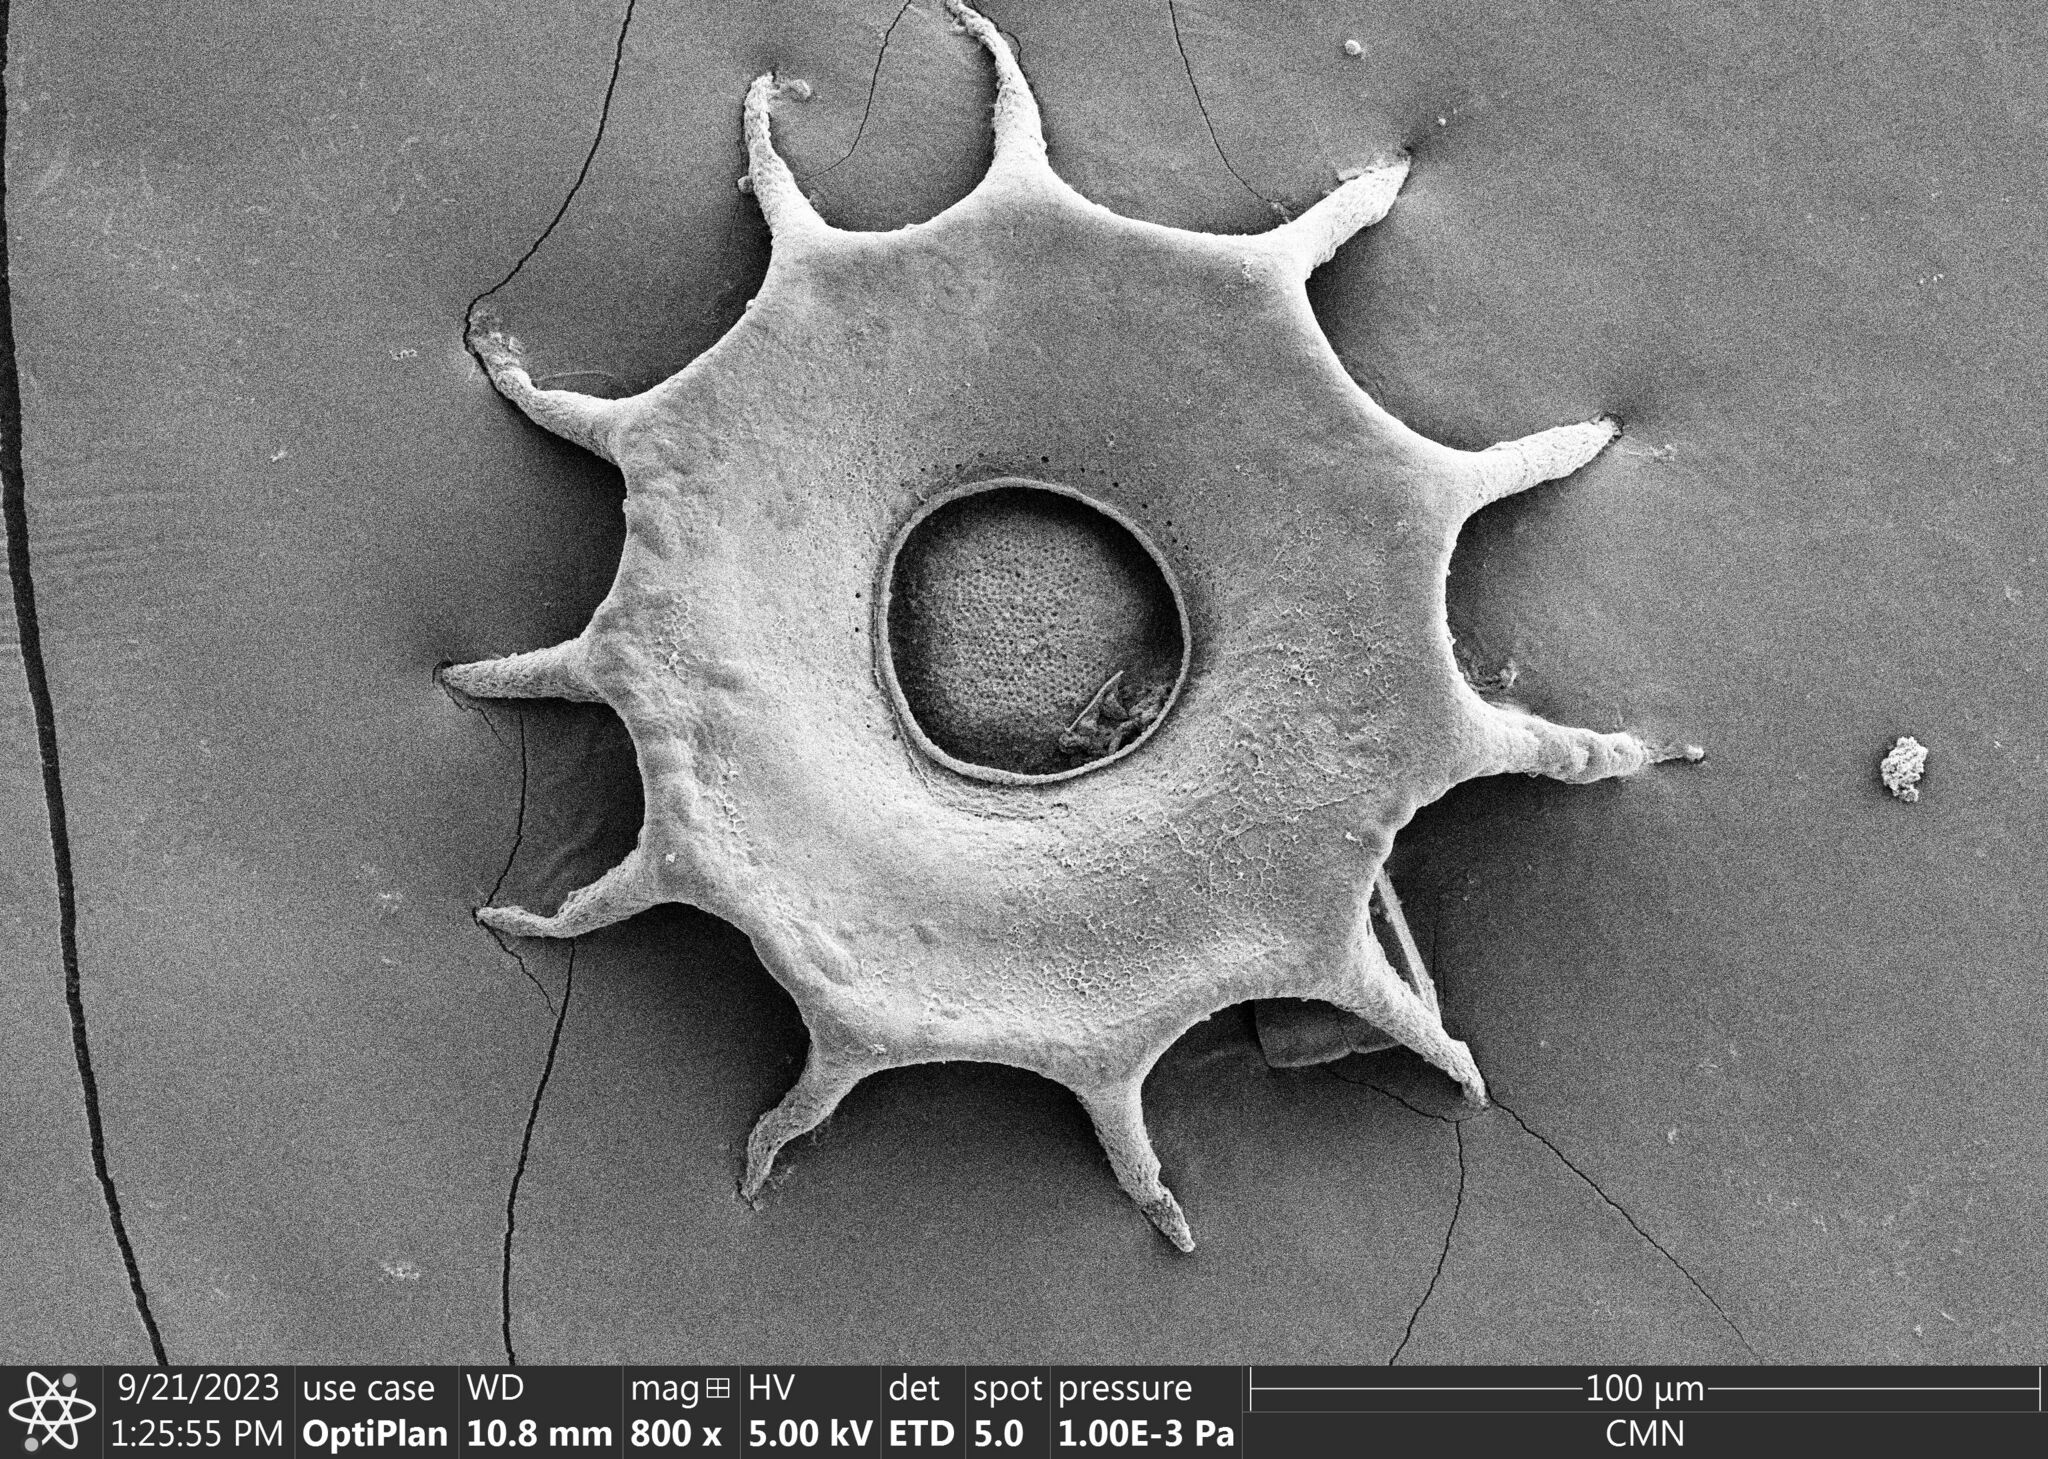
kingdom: Protozoa
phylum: Amoebozoa
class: Lobosa
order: Arcellinida
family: Arcellidae
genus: Galeripora
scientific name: Galeripora
